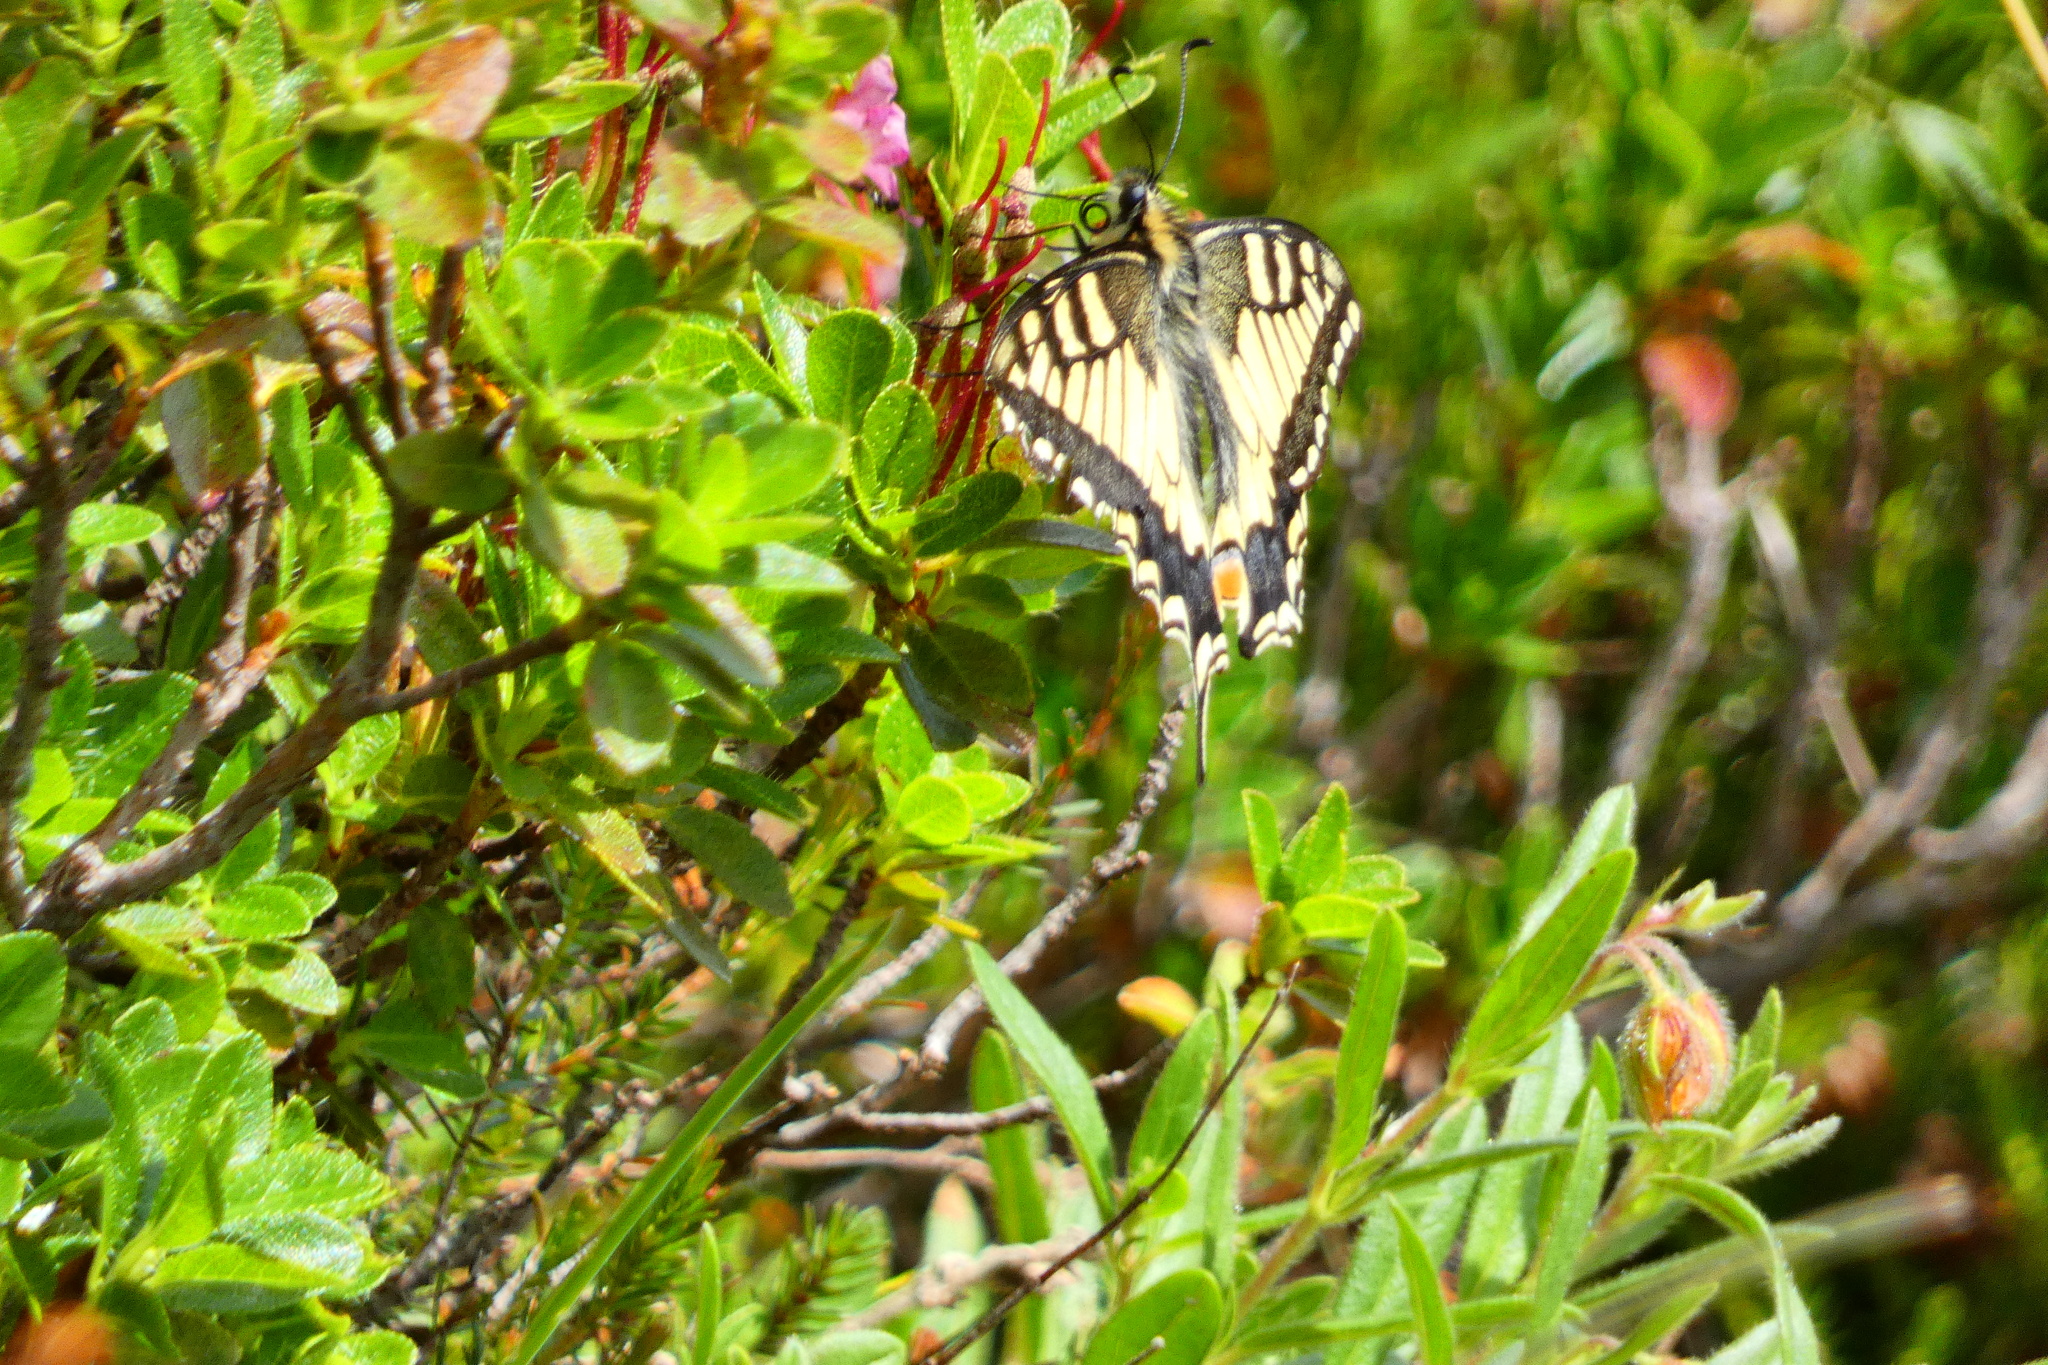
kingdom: Animalia
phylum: Arthropoda
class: Insecta
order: Lepidoptera
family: Papilionidae
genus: Papilio
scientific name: Papilio machaon
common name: Swallowtail
